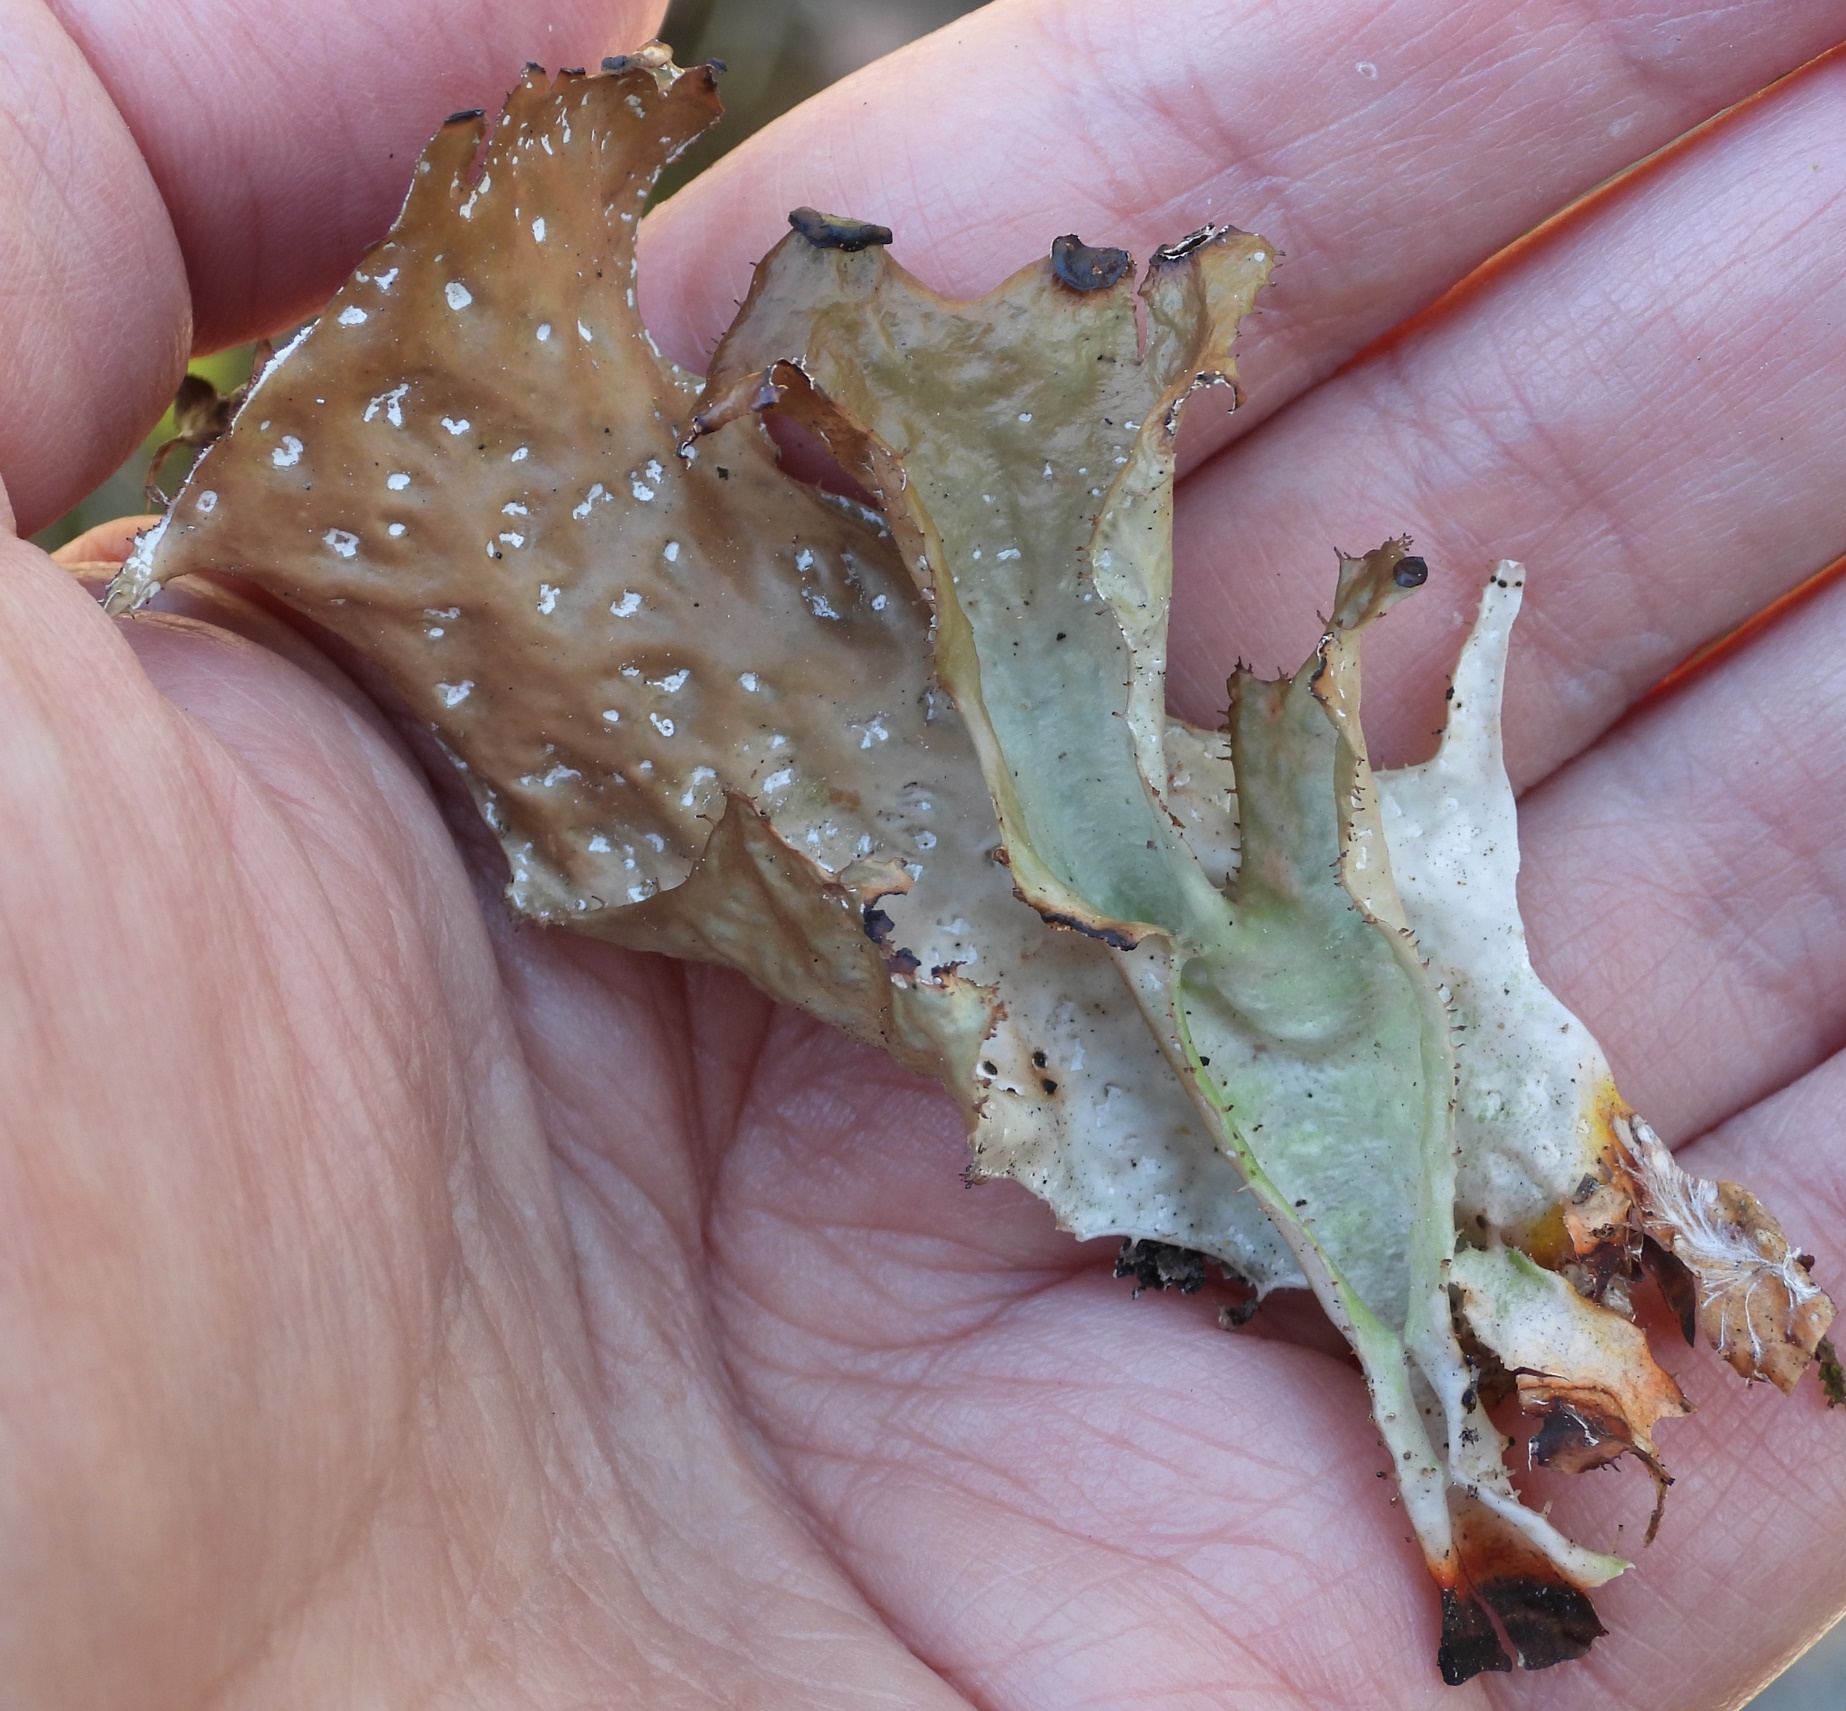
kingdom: Fungi
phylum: Ascomycota
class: Lecanoromycetes
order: Lecanorales
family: Parmeliaceae
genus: Cetraria
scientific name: Cetraria islandica
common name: Iceland lichen
